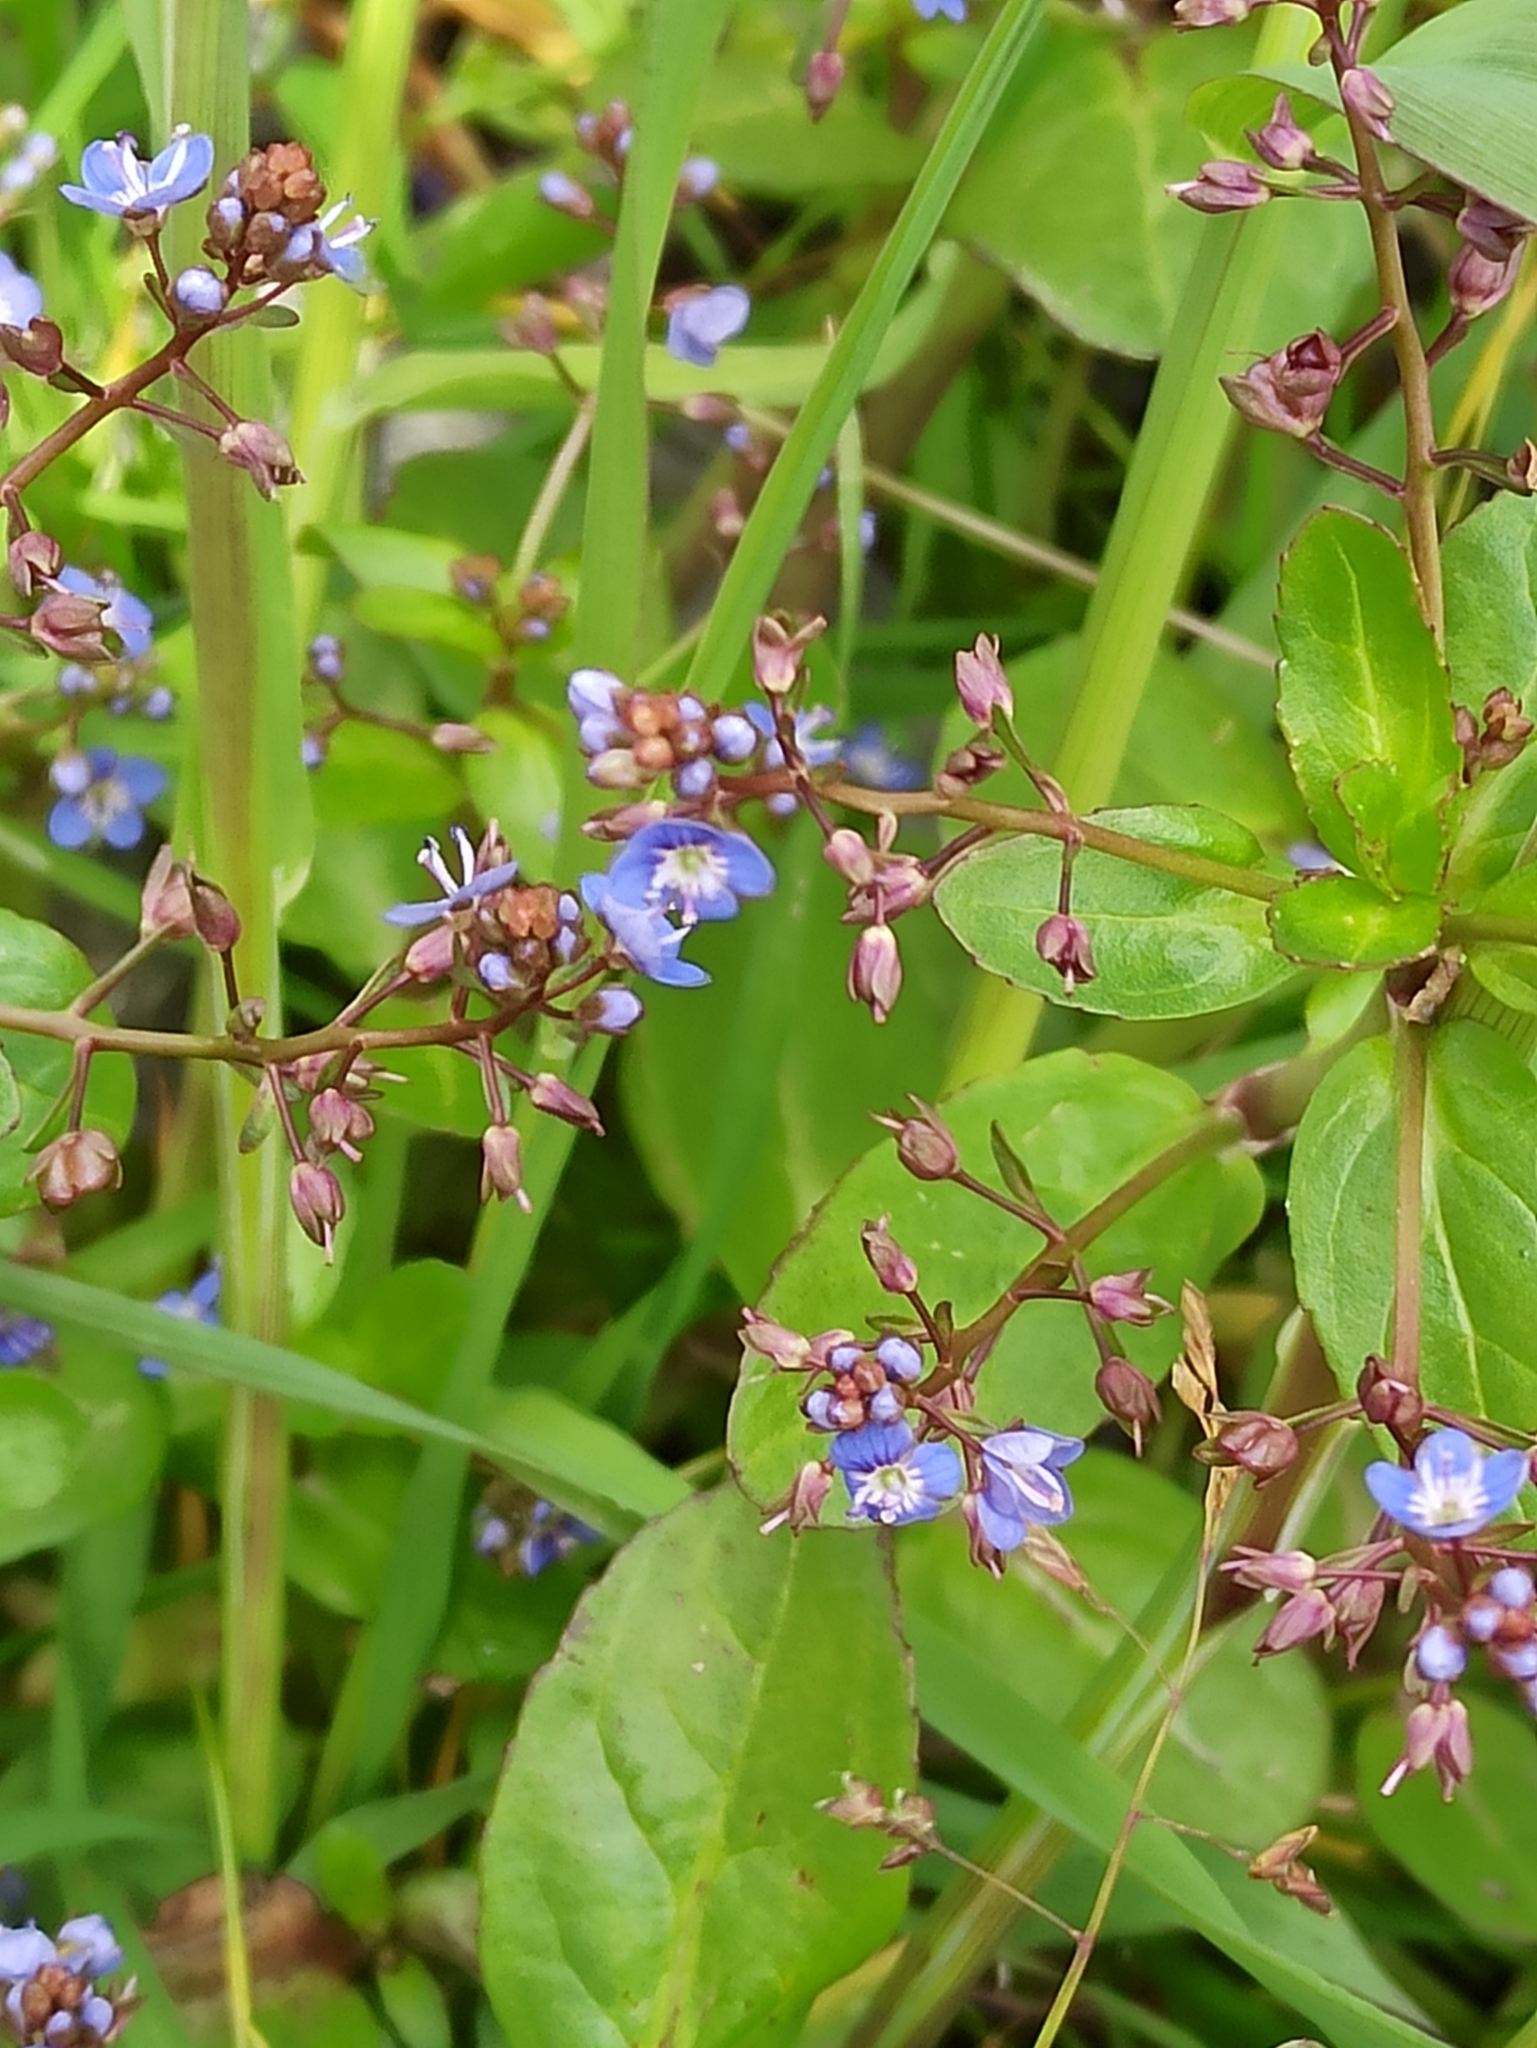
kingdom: Plantae
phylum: Tracheophyta
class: Magnoliopsida
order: Lamiales
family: Plantaginaceae
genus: Veronica
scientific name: Veronica beccabunga
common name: Brooklime
